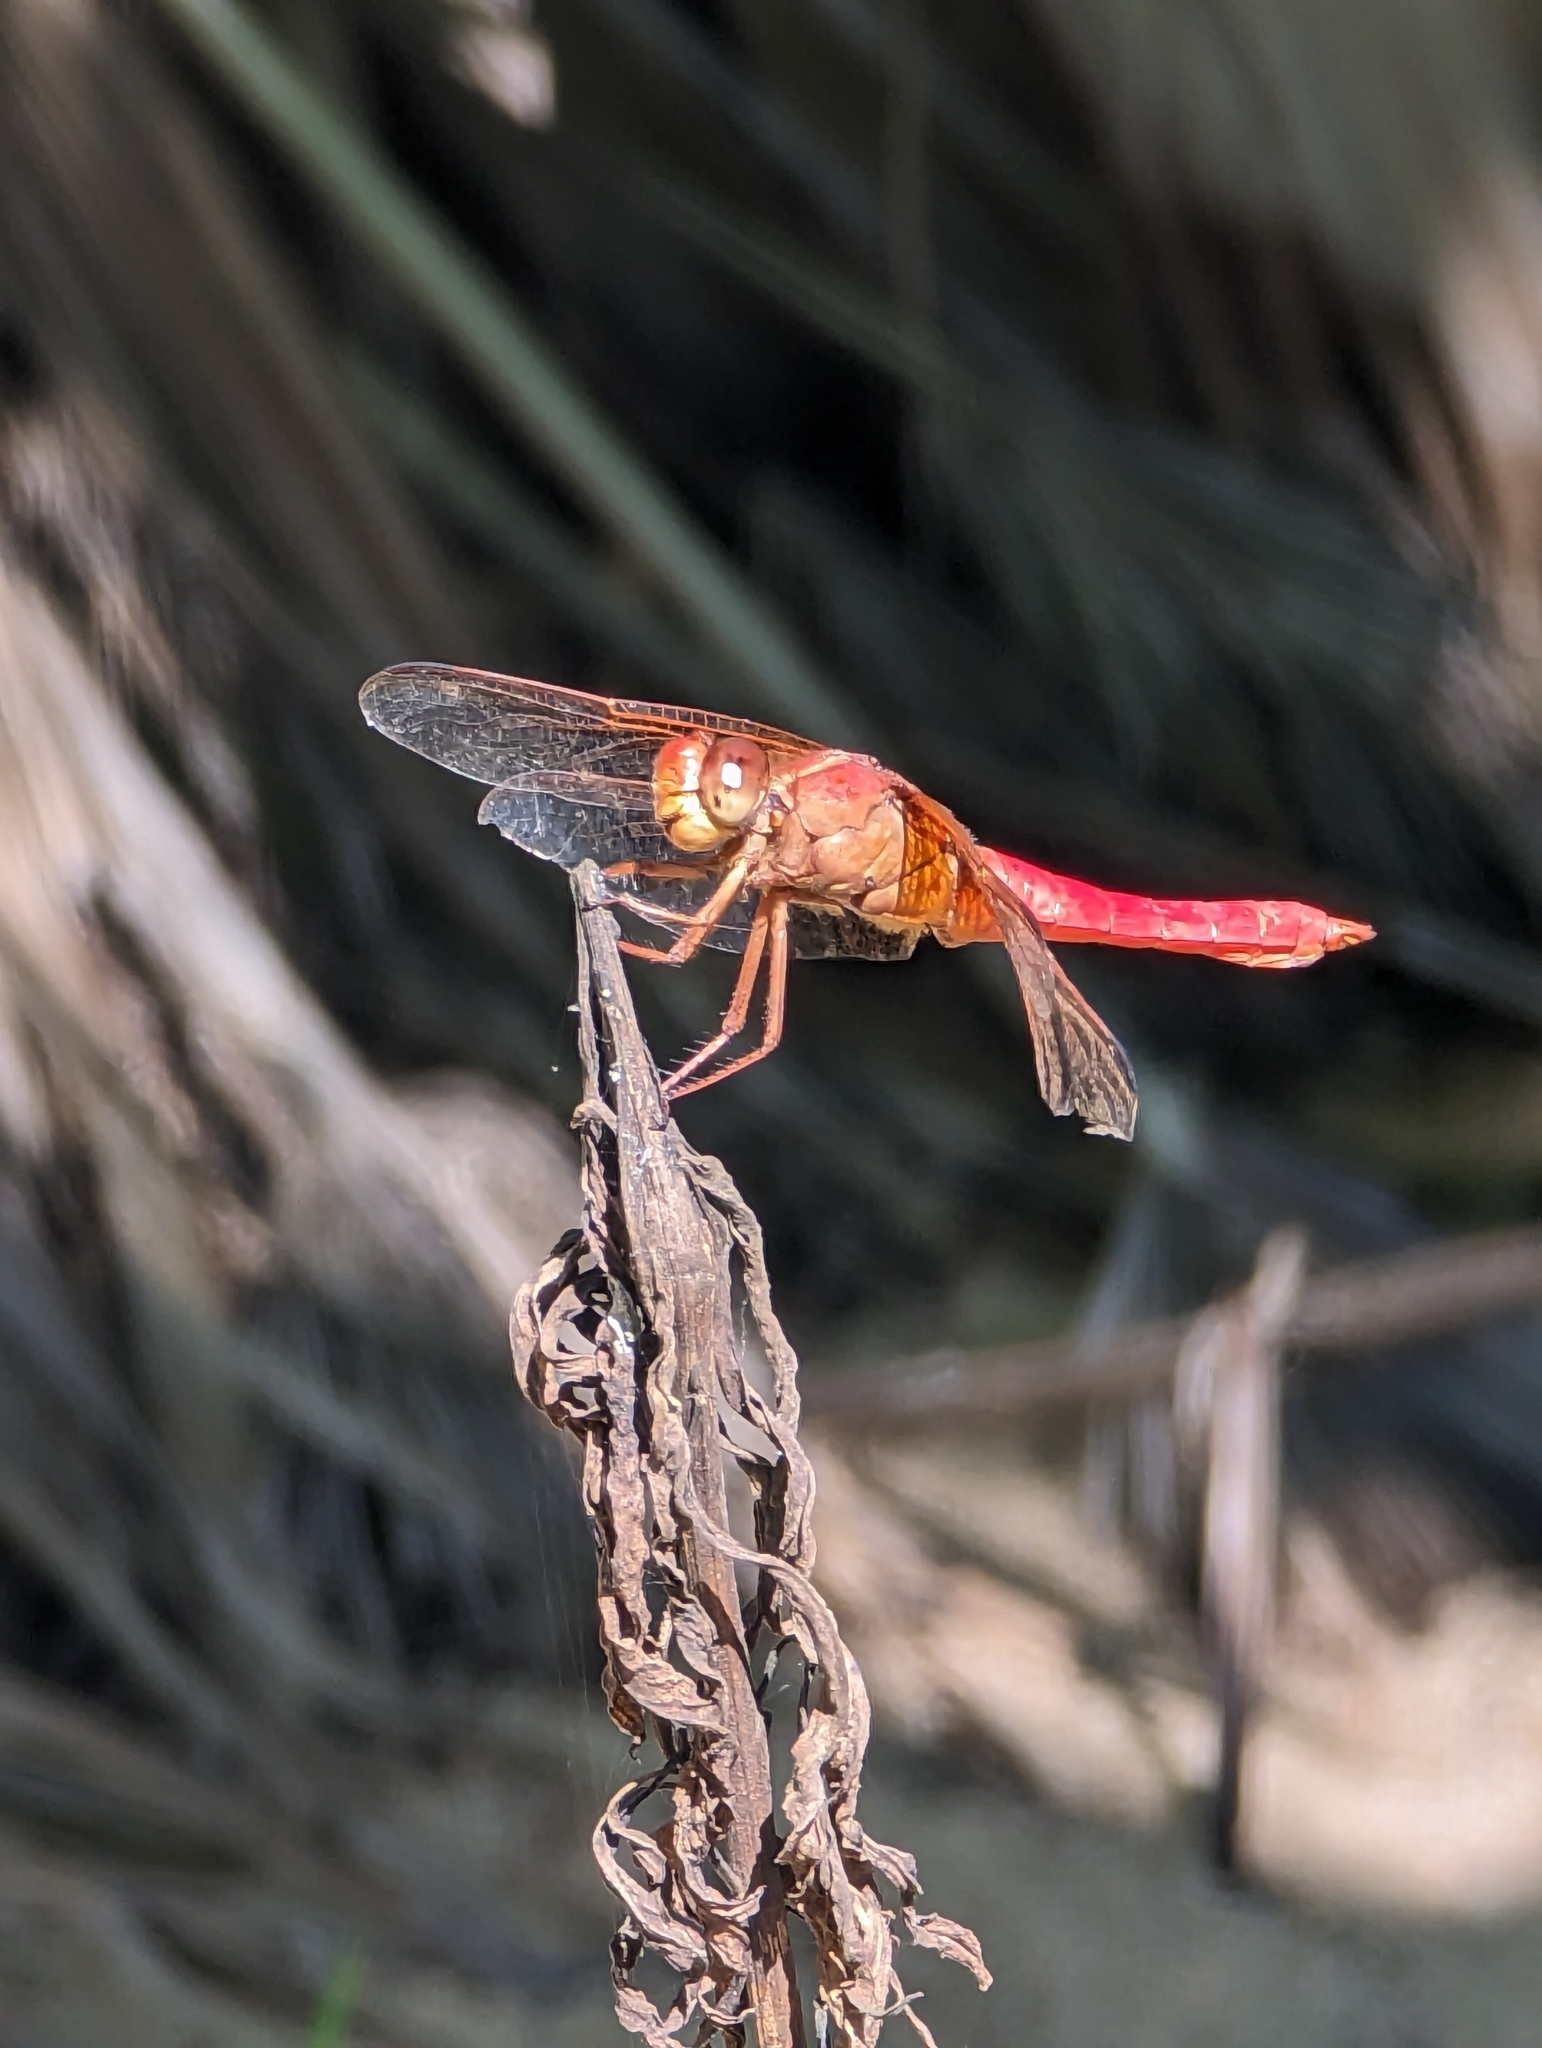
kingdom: Animalia
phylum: Arthropoda
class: Insecta
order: Odonata
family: Libellulidae
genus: Libellula
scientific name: Libellula croceipennis
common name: Neon skimmer
